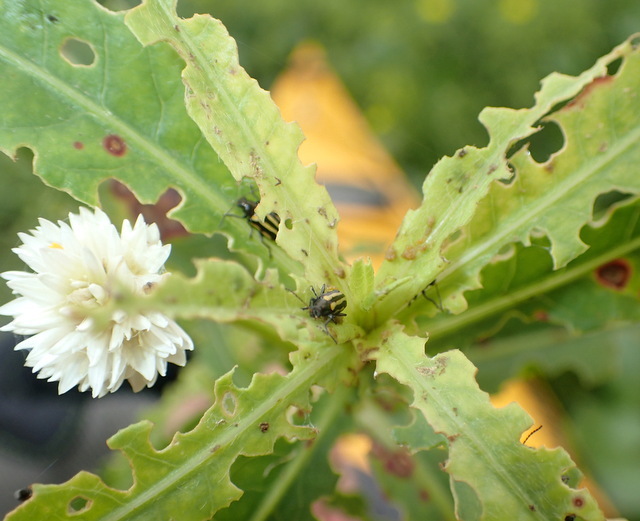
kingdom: Animalia
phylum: Arthropoda
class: Insecta
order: Coleoptera
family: Chrysomelidae
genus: Agasicles
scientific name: Agasicles hygrophila
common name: Alligatorweed flea beetle
